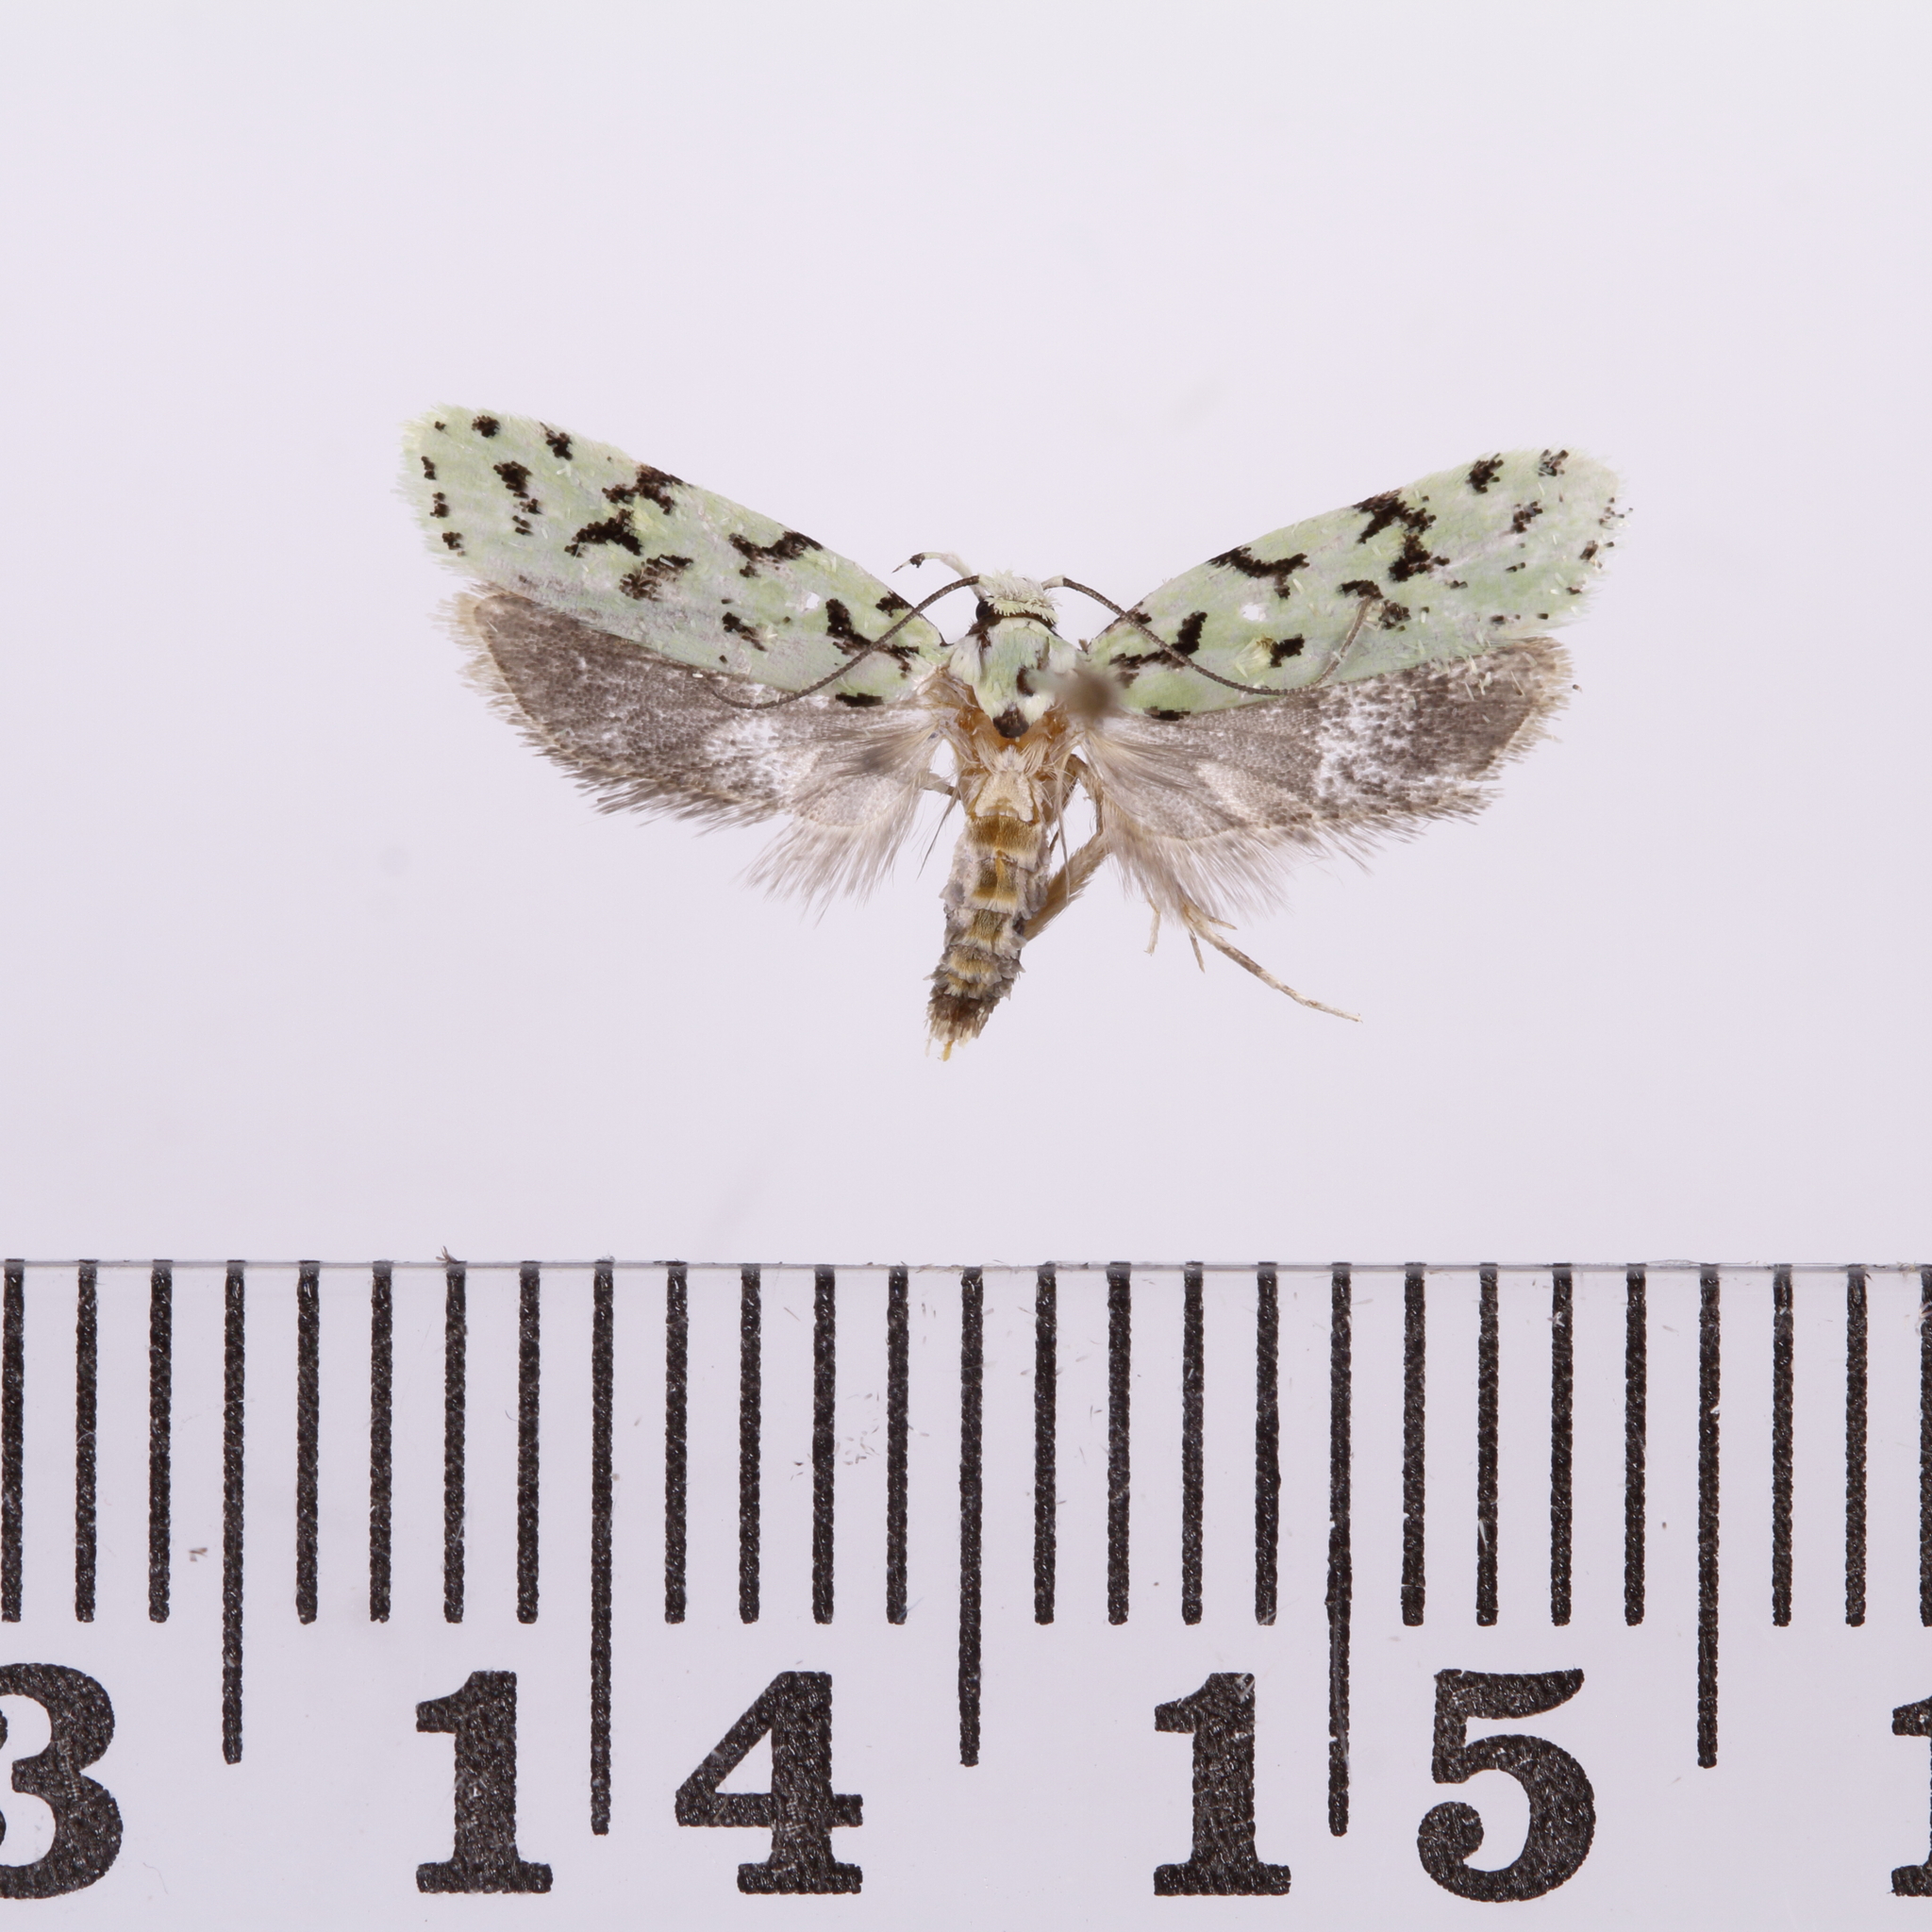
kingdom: Animalia
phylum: Arthropoda
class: Insecta
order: Lepidoptera
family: Oecophoridae
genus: Izatha
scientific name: Izatha peroneanella
